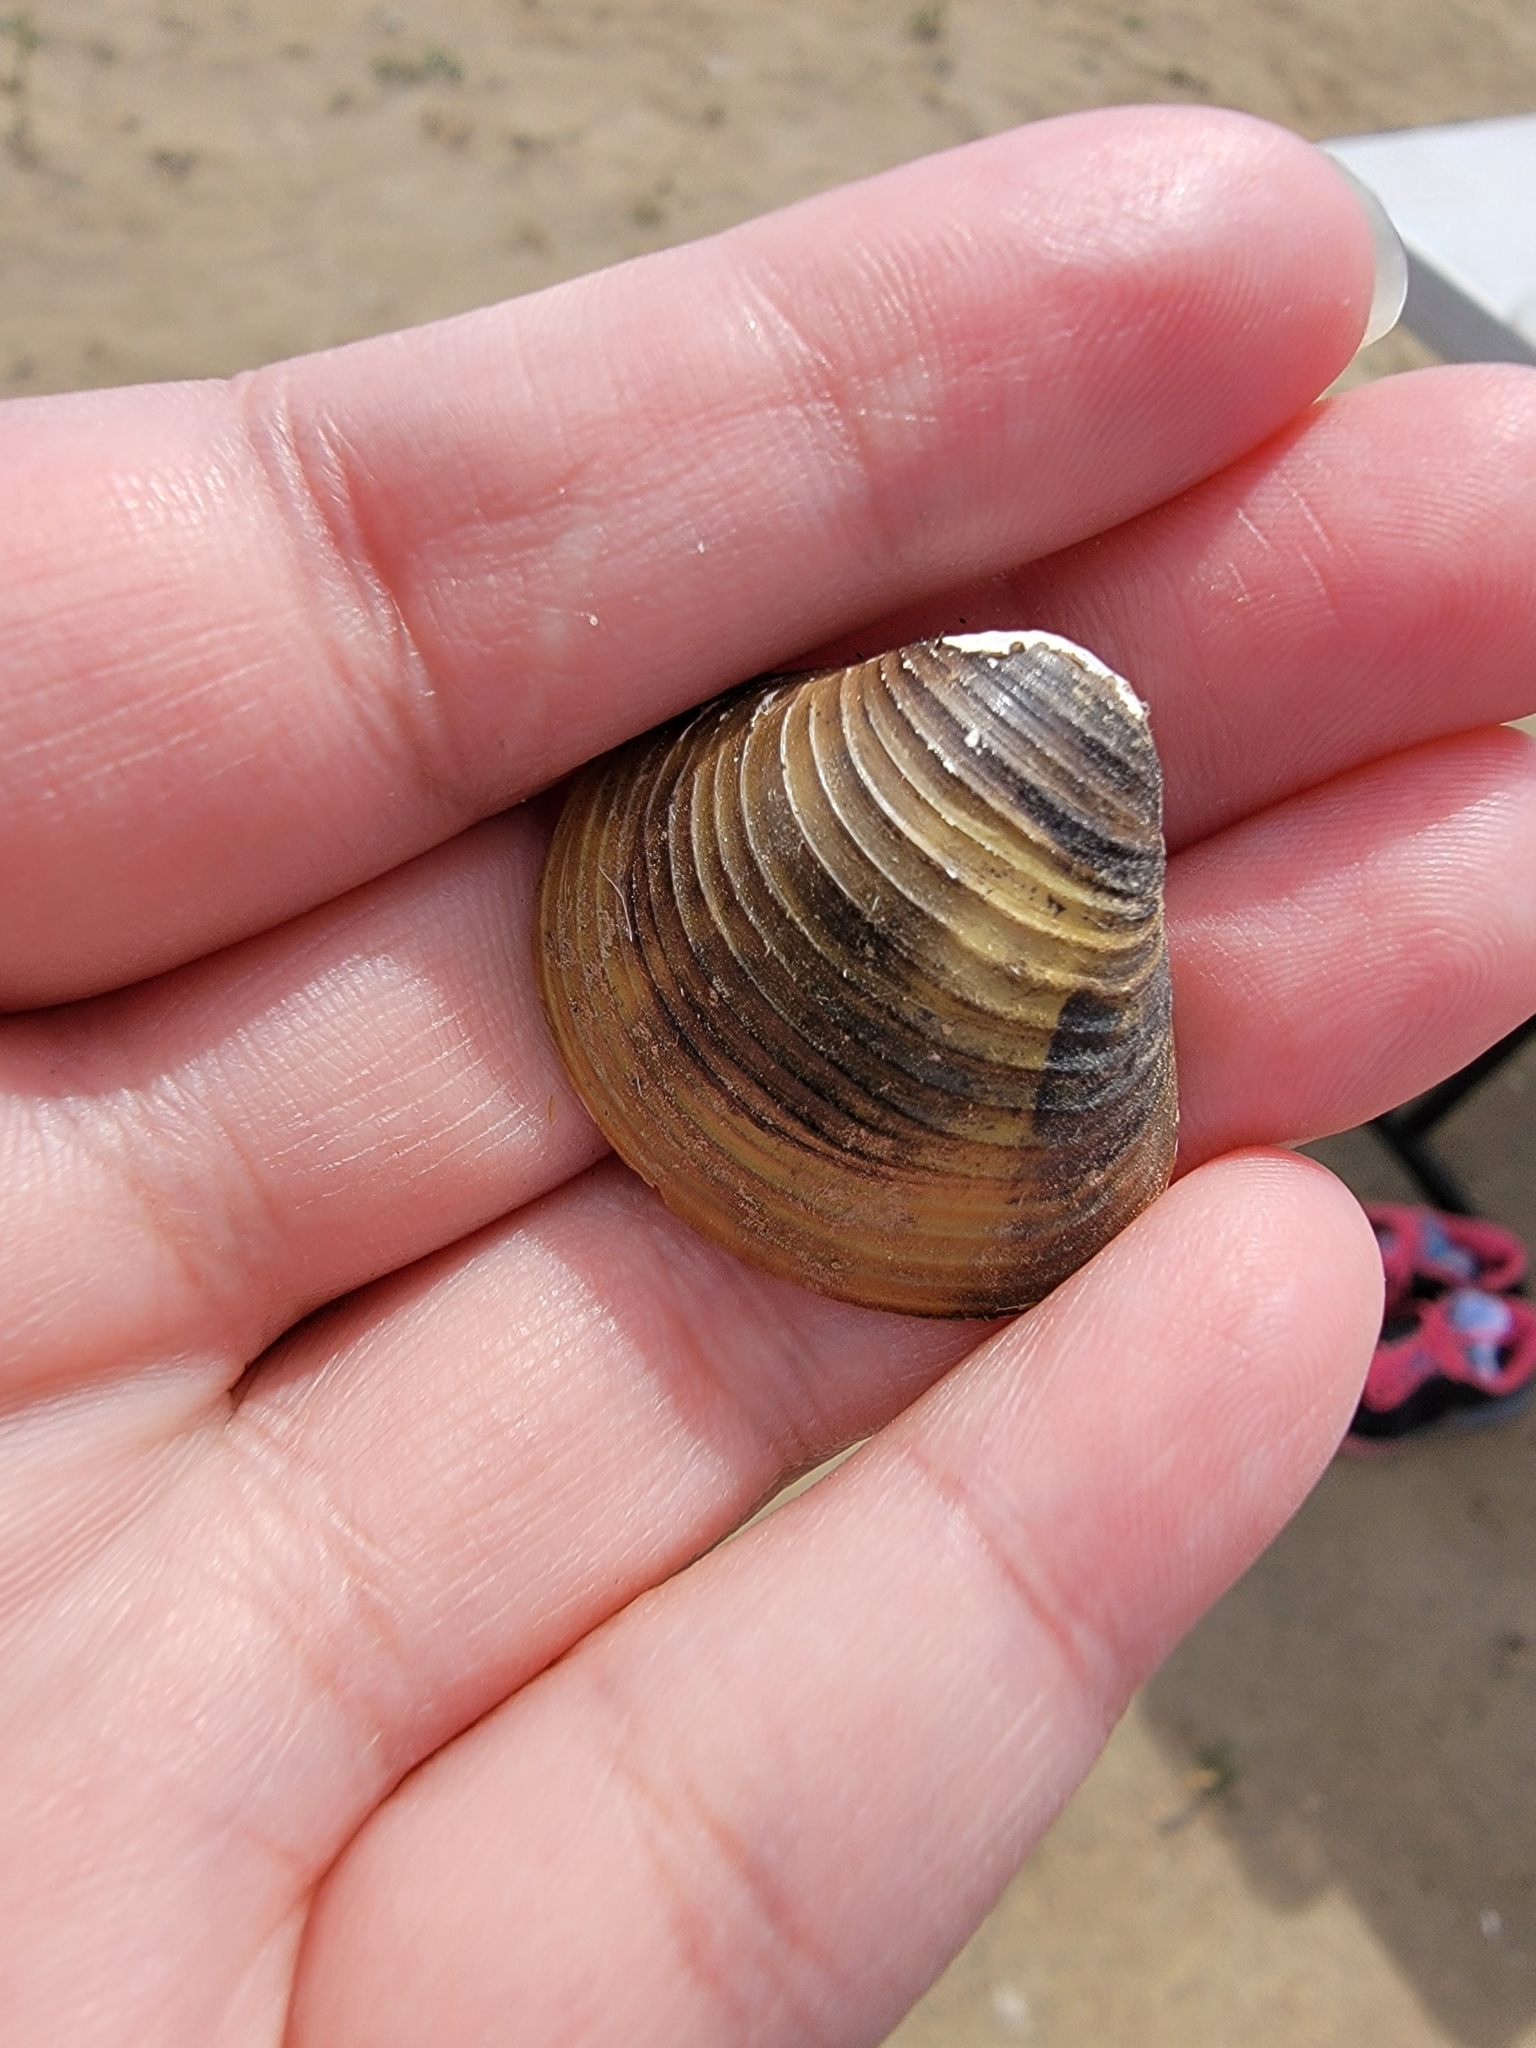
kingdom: Animalia
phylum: Mollusca
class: Bivalvia
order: Venerida
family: Cyrenidae
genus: Corbicula
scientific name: Corbicula fluminea
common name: Asian clam
